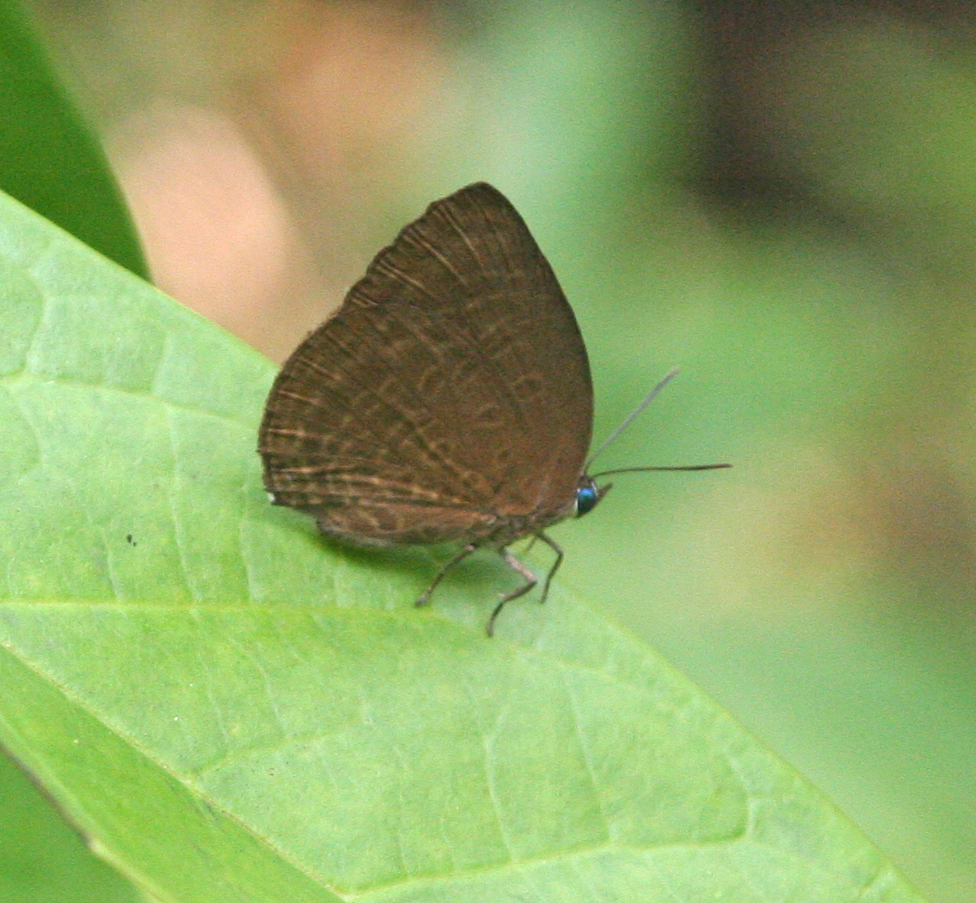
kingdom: Animalia
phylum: Arthropoda
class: Insecta
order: Lepidoptera
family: Lycaenidae
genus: Arhopala
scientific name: Arhopala avatha
